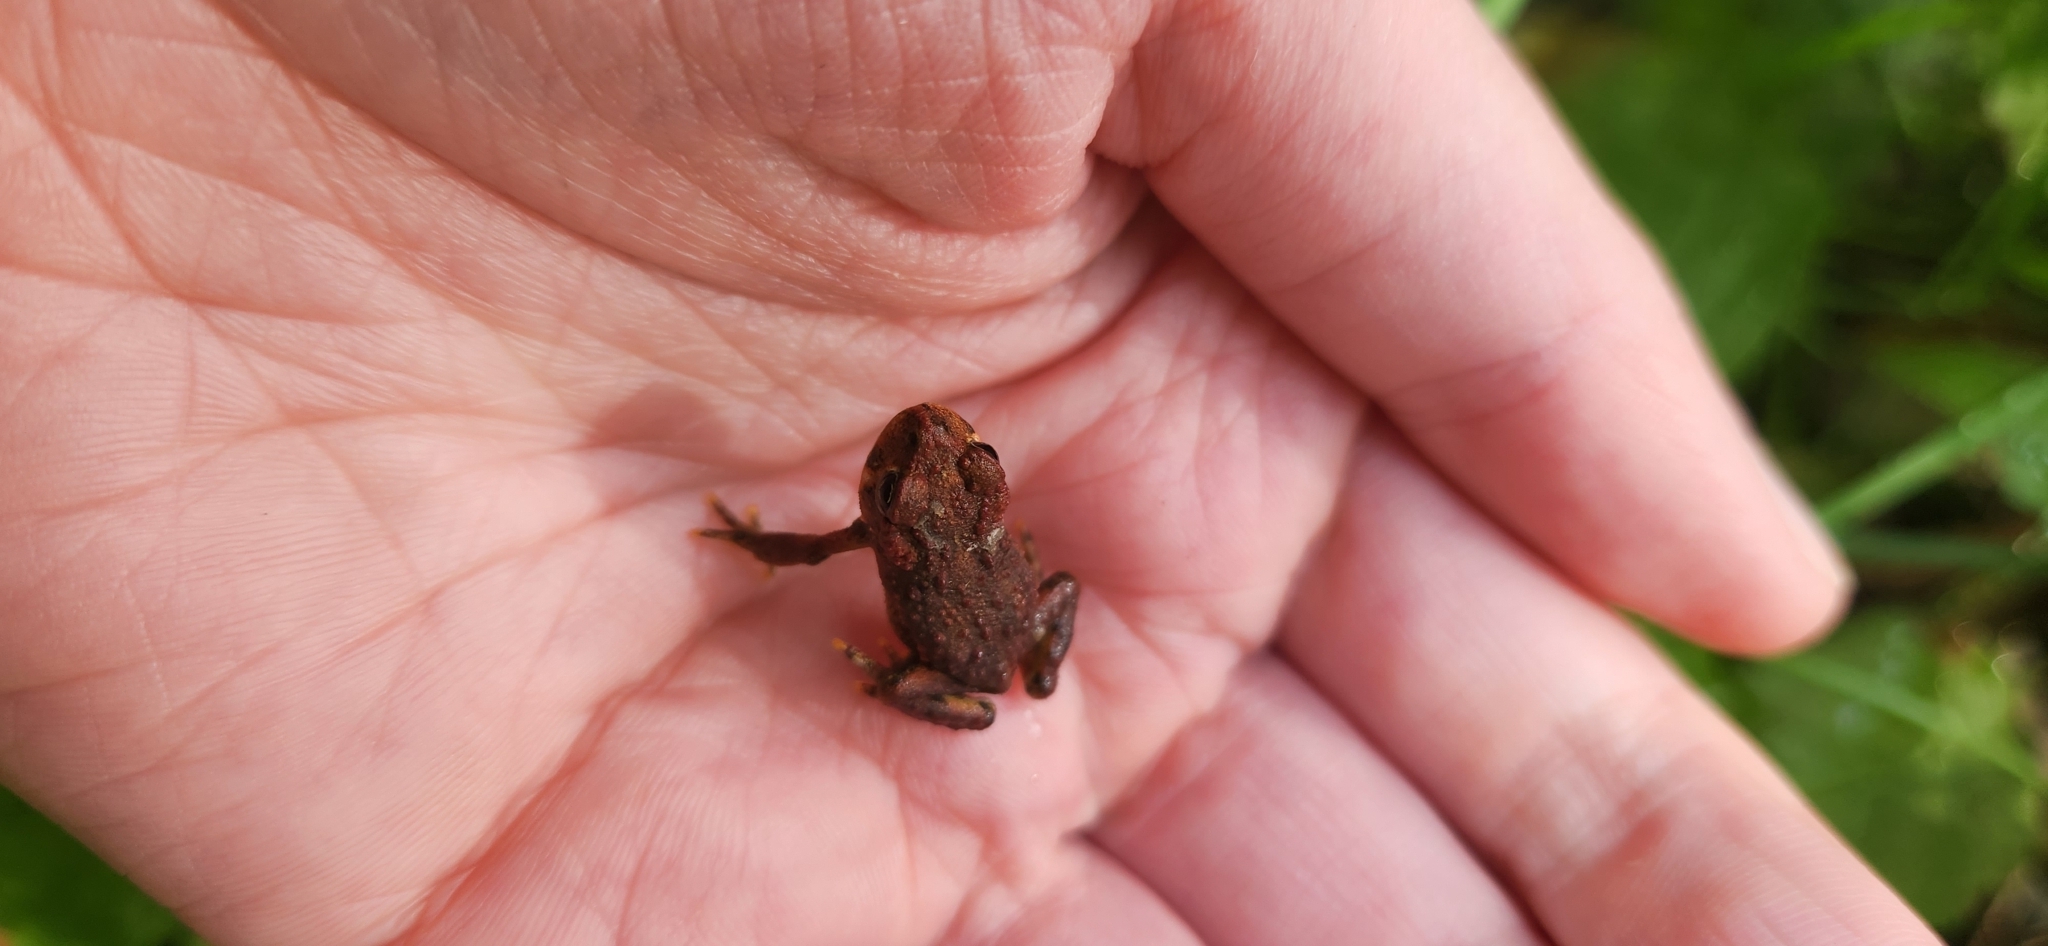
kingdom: Animalia
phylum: Chordata
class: Amphibia
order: Anura
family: Bufonidae
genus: Anaxyrus
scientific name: Anaxyrus boreas
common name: Western toad
